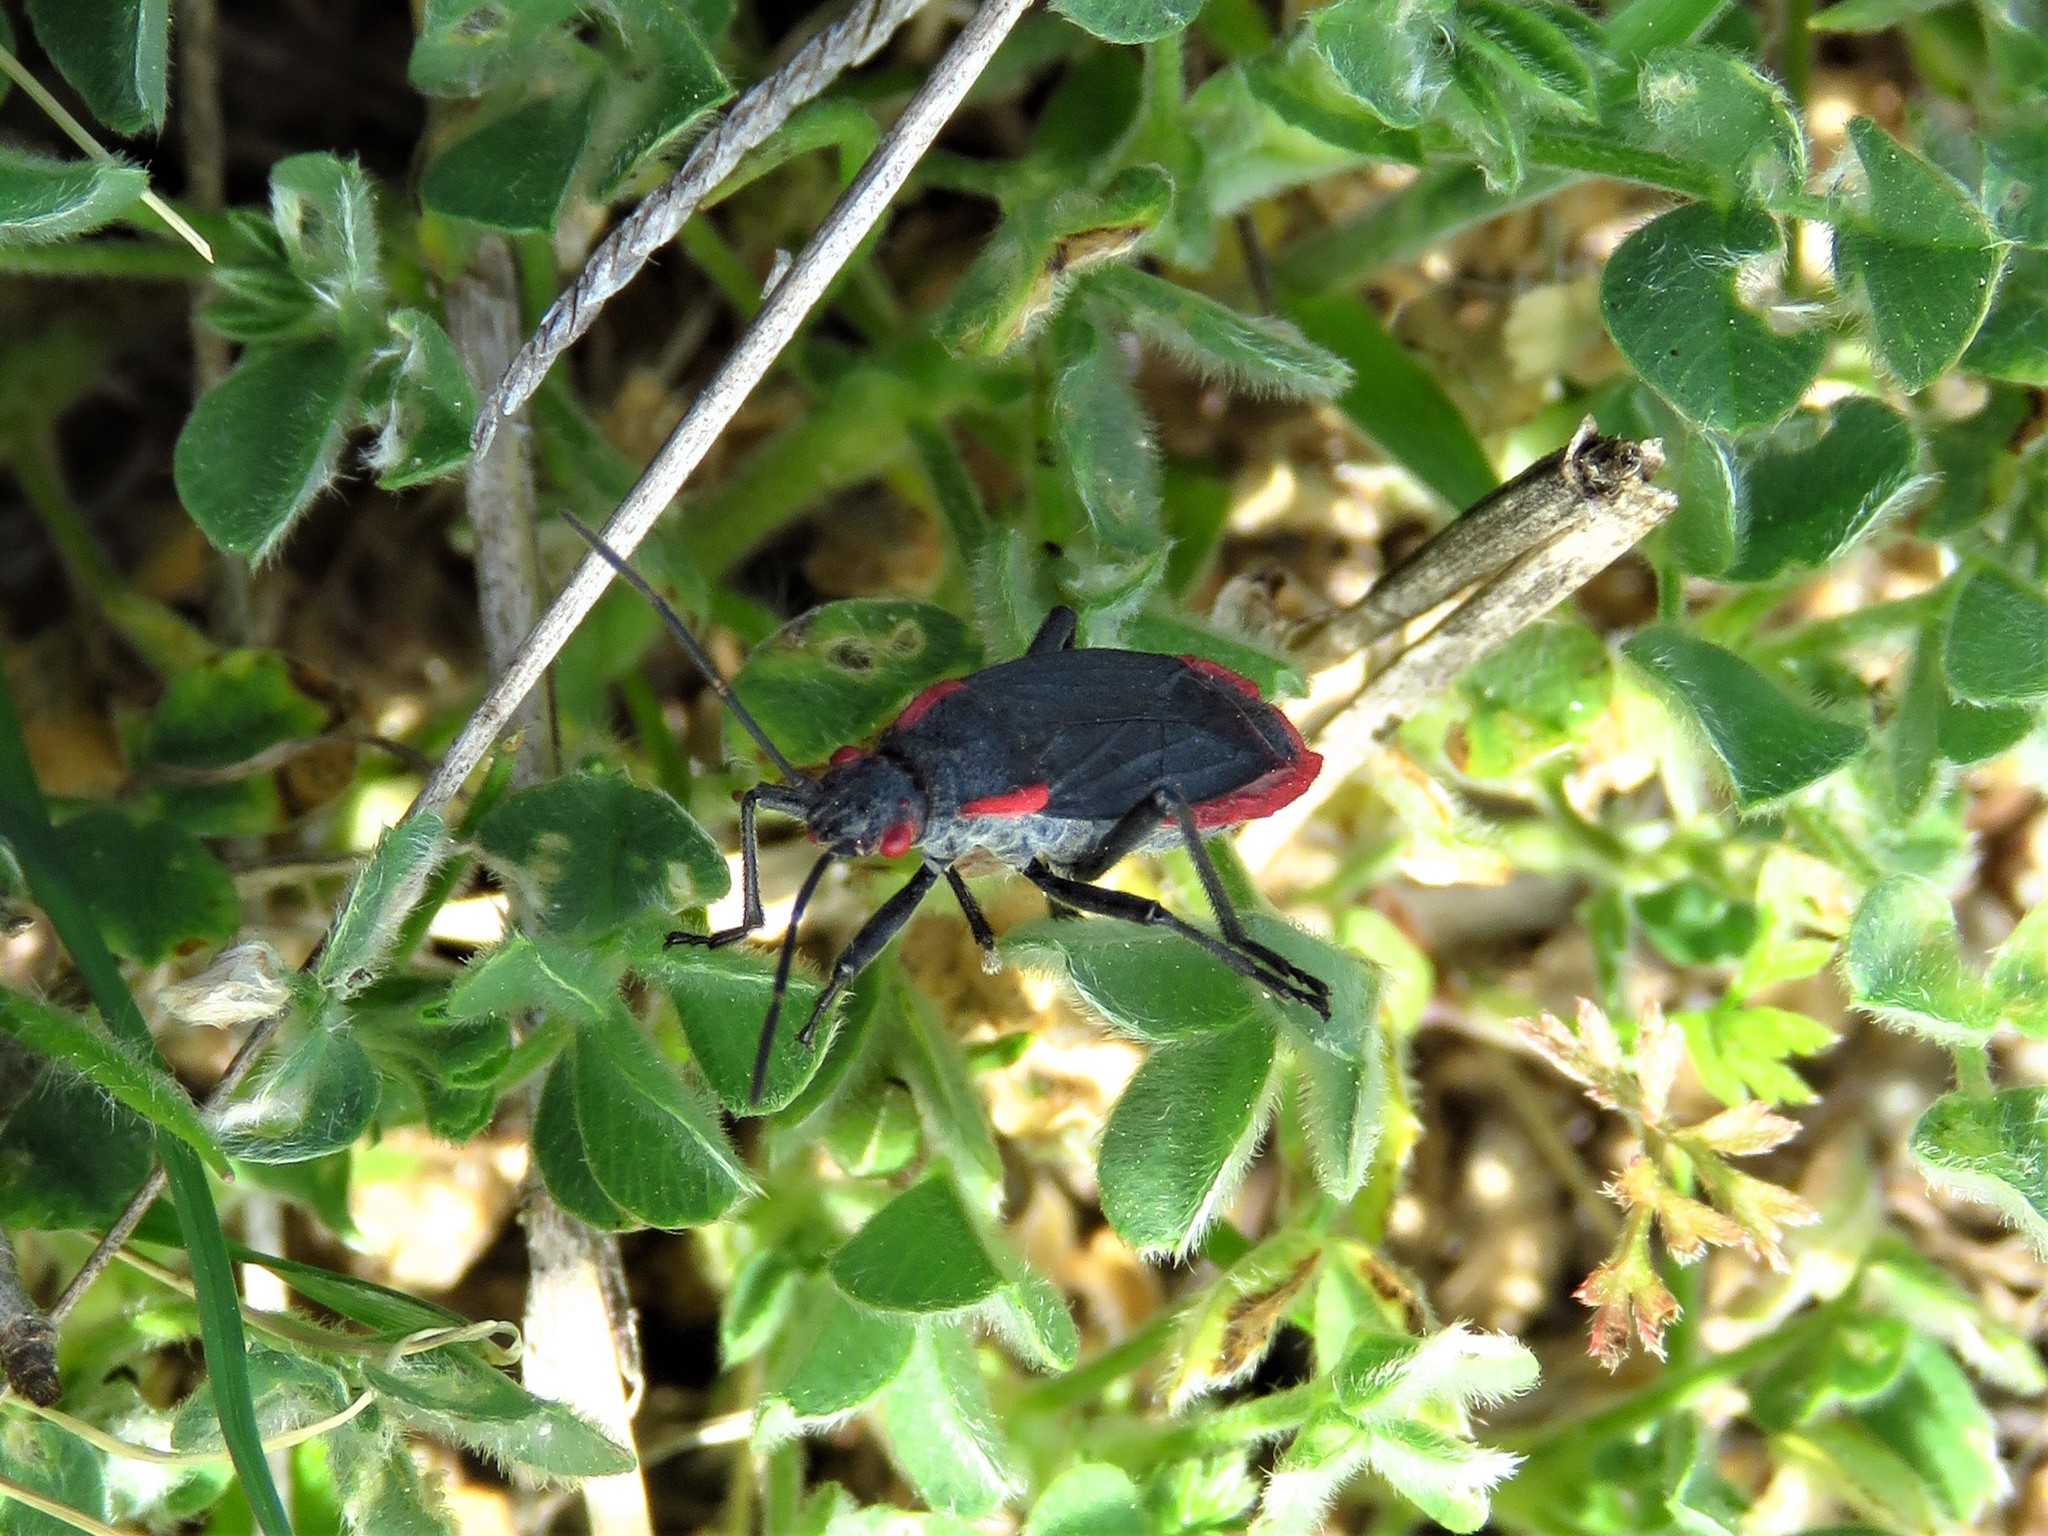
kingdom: Animalia
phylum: Arthropoda
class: Insecta
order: Hemiptera
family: Rhopalidae
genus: Jadera
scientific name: Jadera haematoloma
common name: Red-shouldered bug
